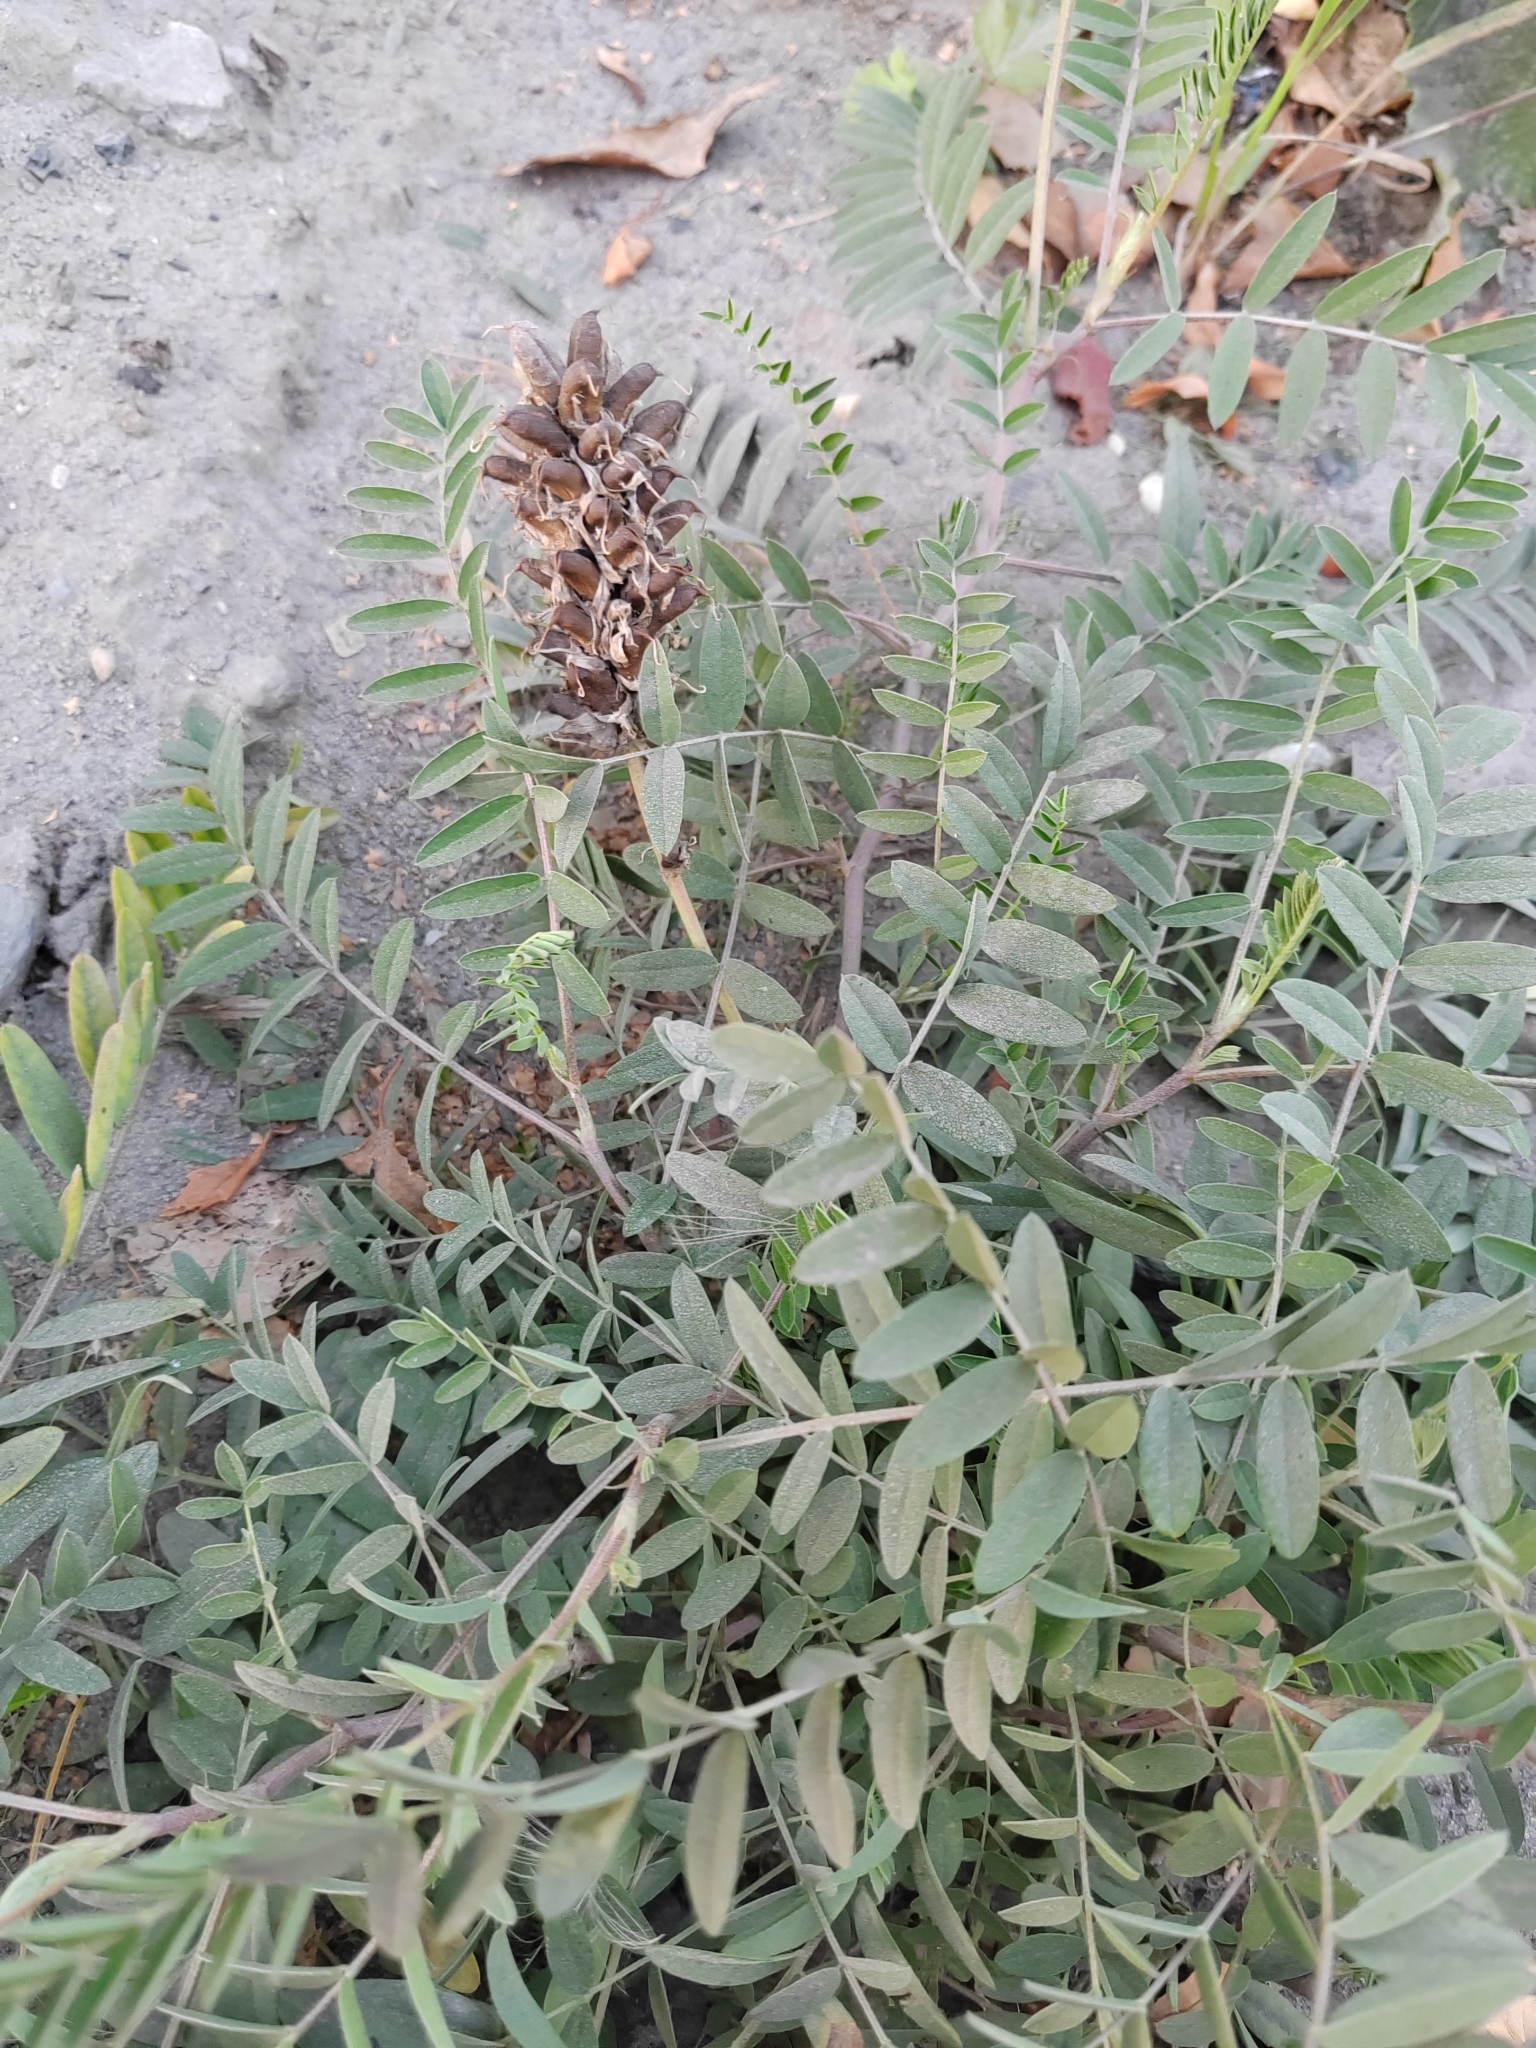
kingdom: Plantae
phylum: Tracheophyta
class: Magnoliopsida
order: Fabales
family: Fabaceae
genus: Astragalus
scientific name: Astragalus uliginosus
